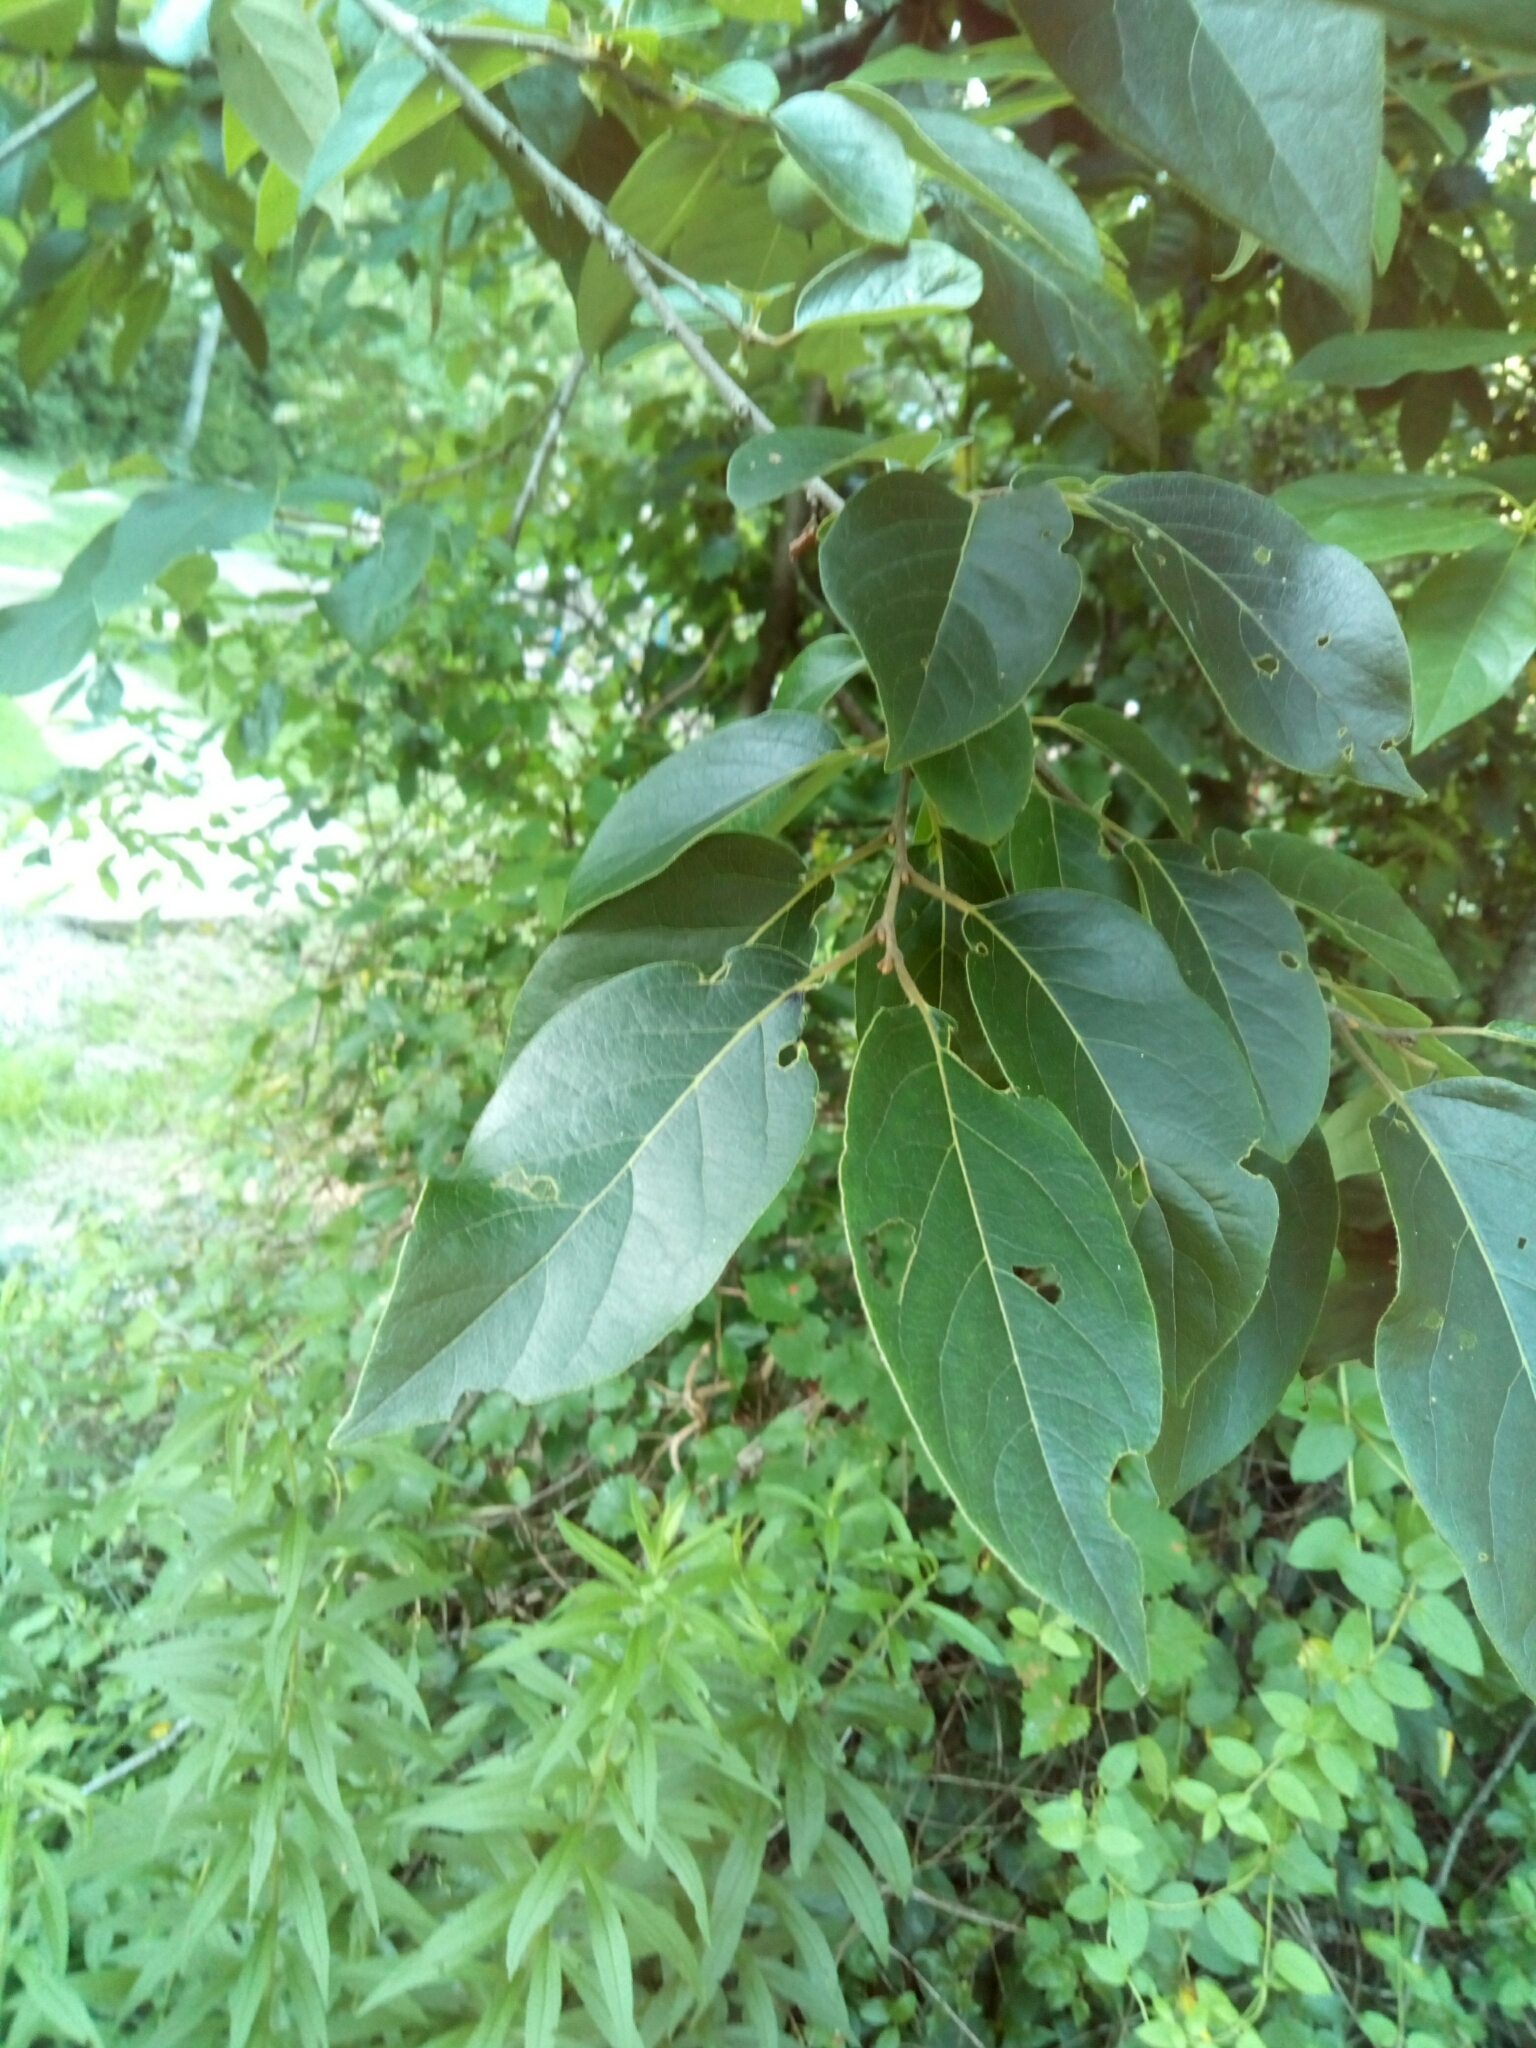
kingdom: Plantae
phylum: Tracheophyta
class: Magnoliopsida
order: Ericales
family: Ebenaceae
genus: Diospyros
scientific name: Diospyros virginiana
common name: Persimmon
